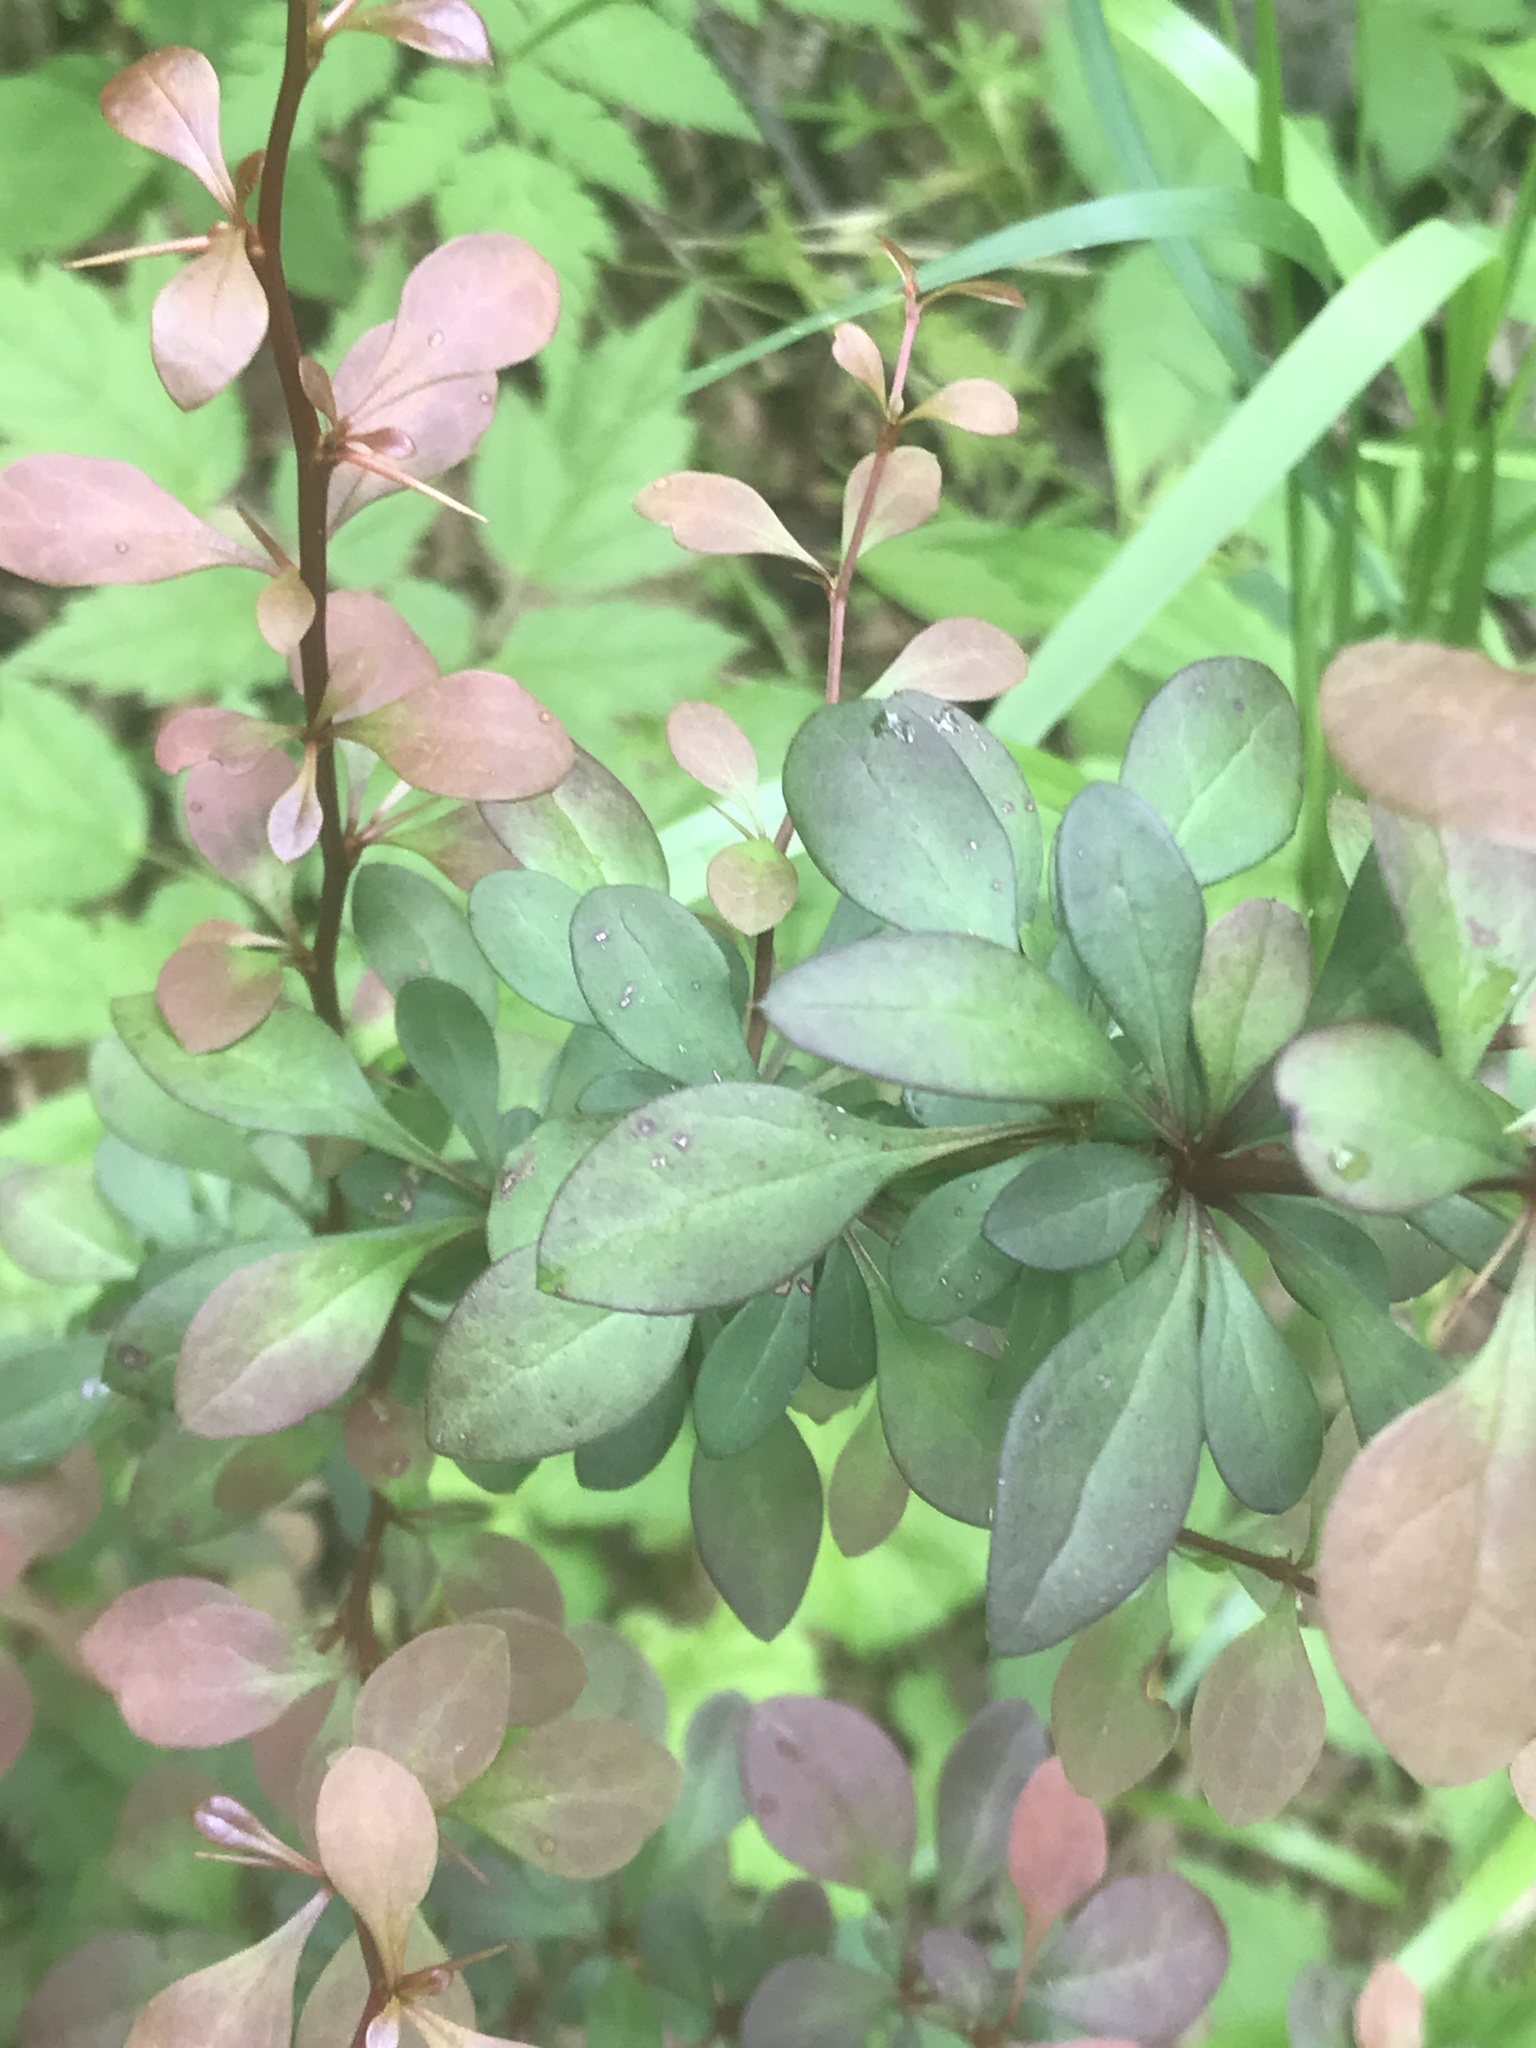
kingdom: Plantae
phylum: Tracheophyta
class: Magnoliopsida
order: Ranunculales
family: Berberidaceae
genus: Berberis
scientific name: Berberis thunbergii
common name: Japanese barberry
